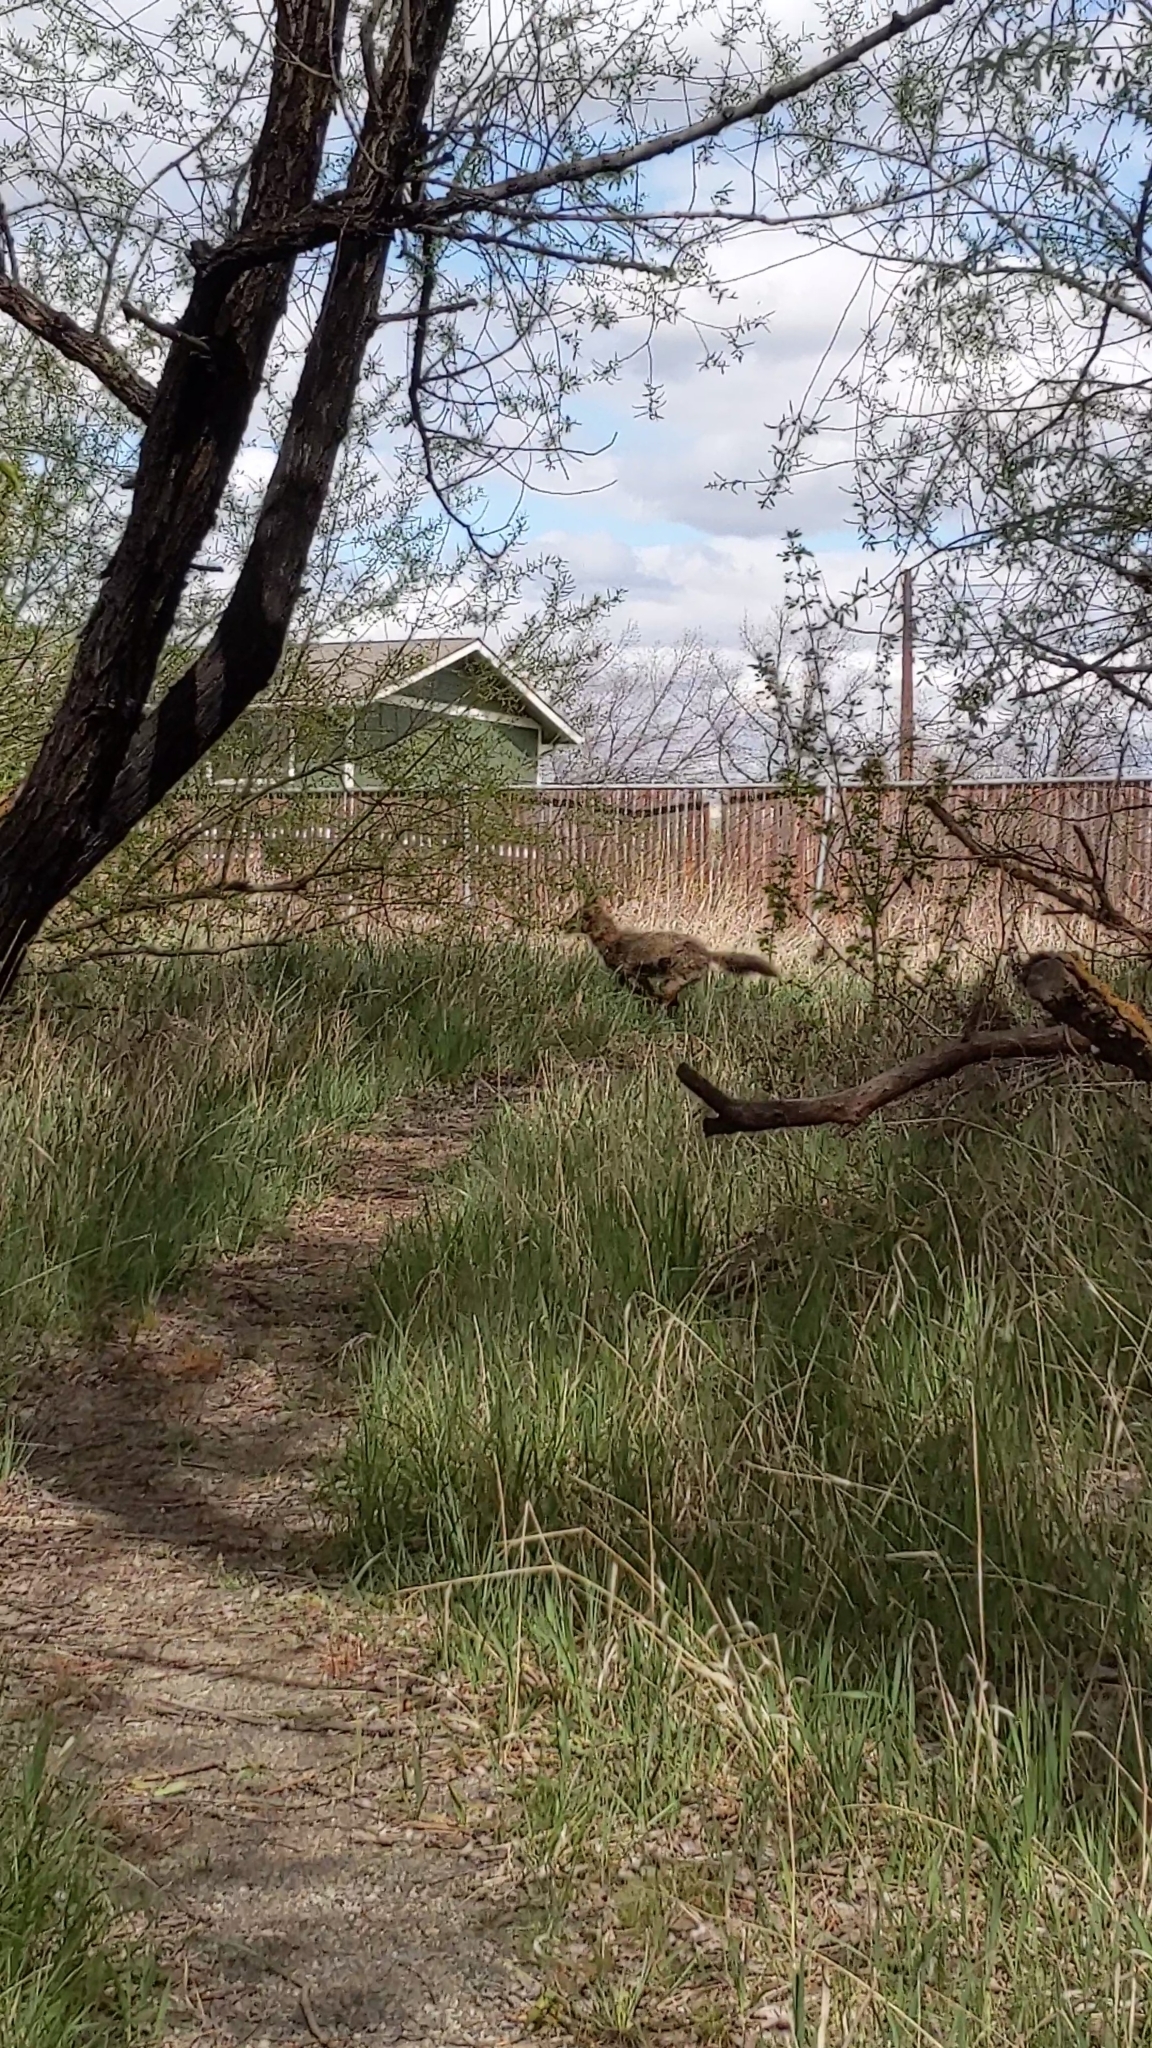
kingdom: Animalia
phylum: Chordata
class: Mammalia
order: Carnivora
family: Canidae
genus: Canis
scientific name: Canis latrans
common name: Coyote
